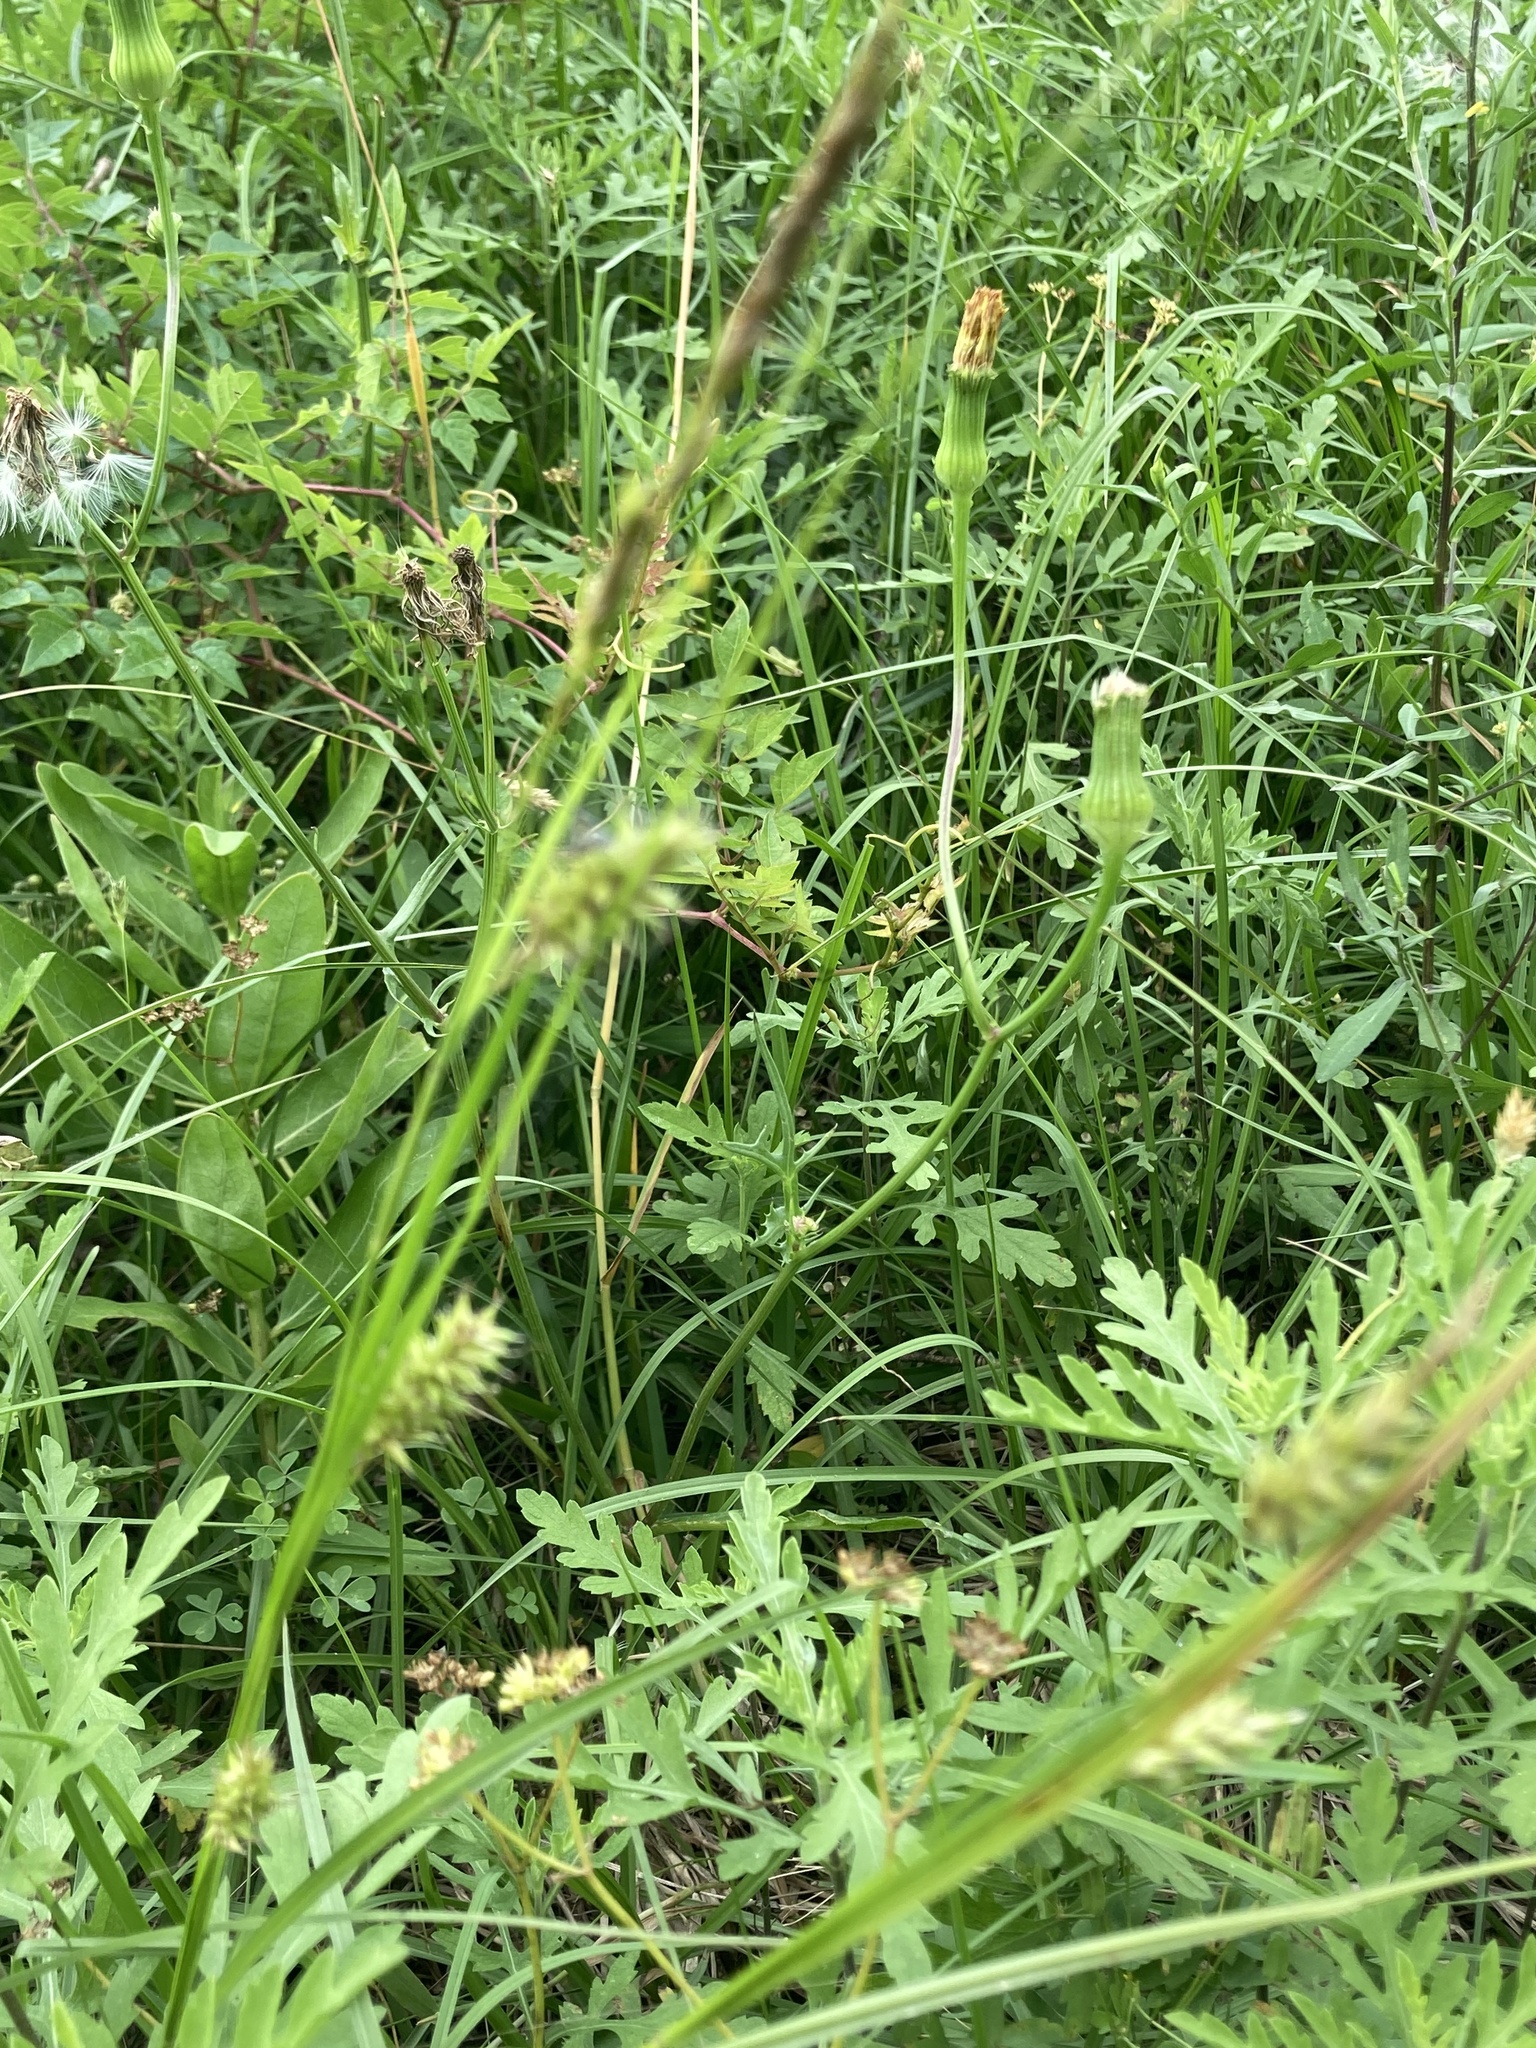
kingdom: Plantae
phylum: Tracheophyta
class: Liliopsida
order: Poales
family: Cyperaceae
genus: Carex
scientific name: Carex cherokeensis
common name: Cherokee sedge
